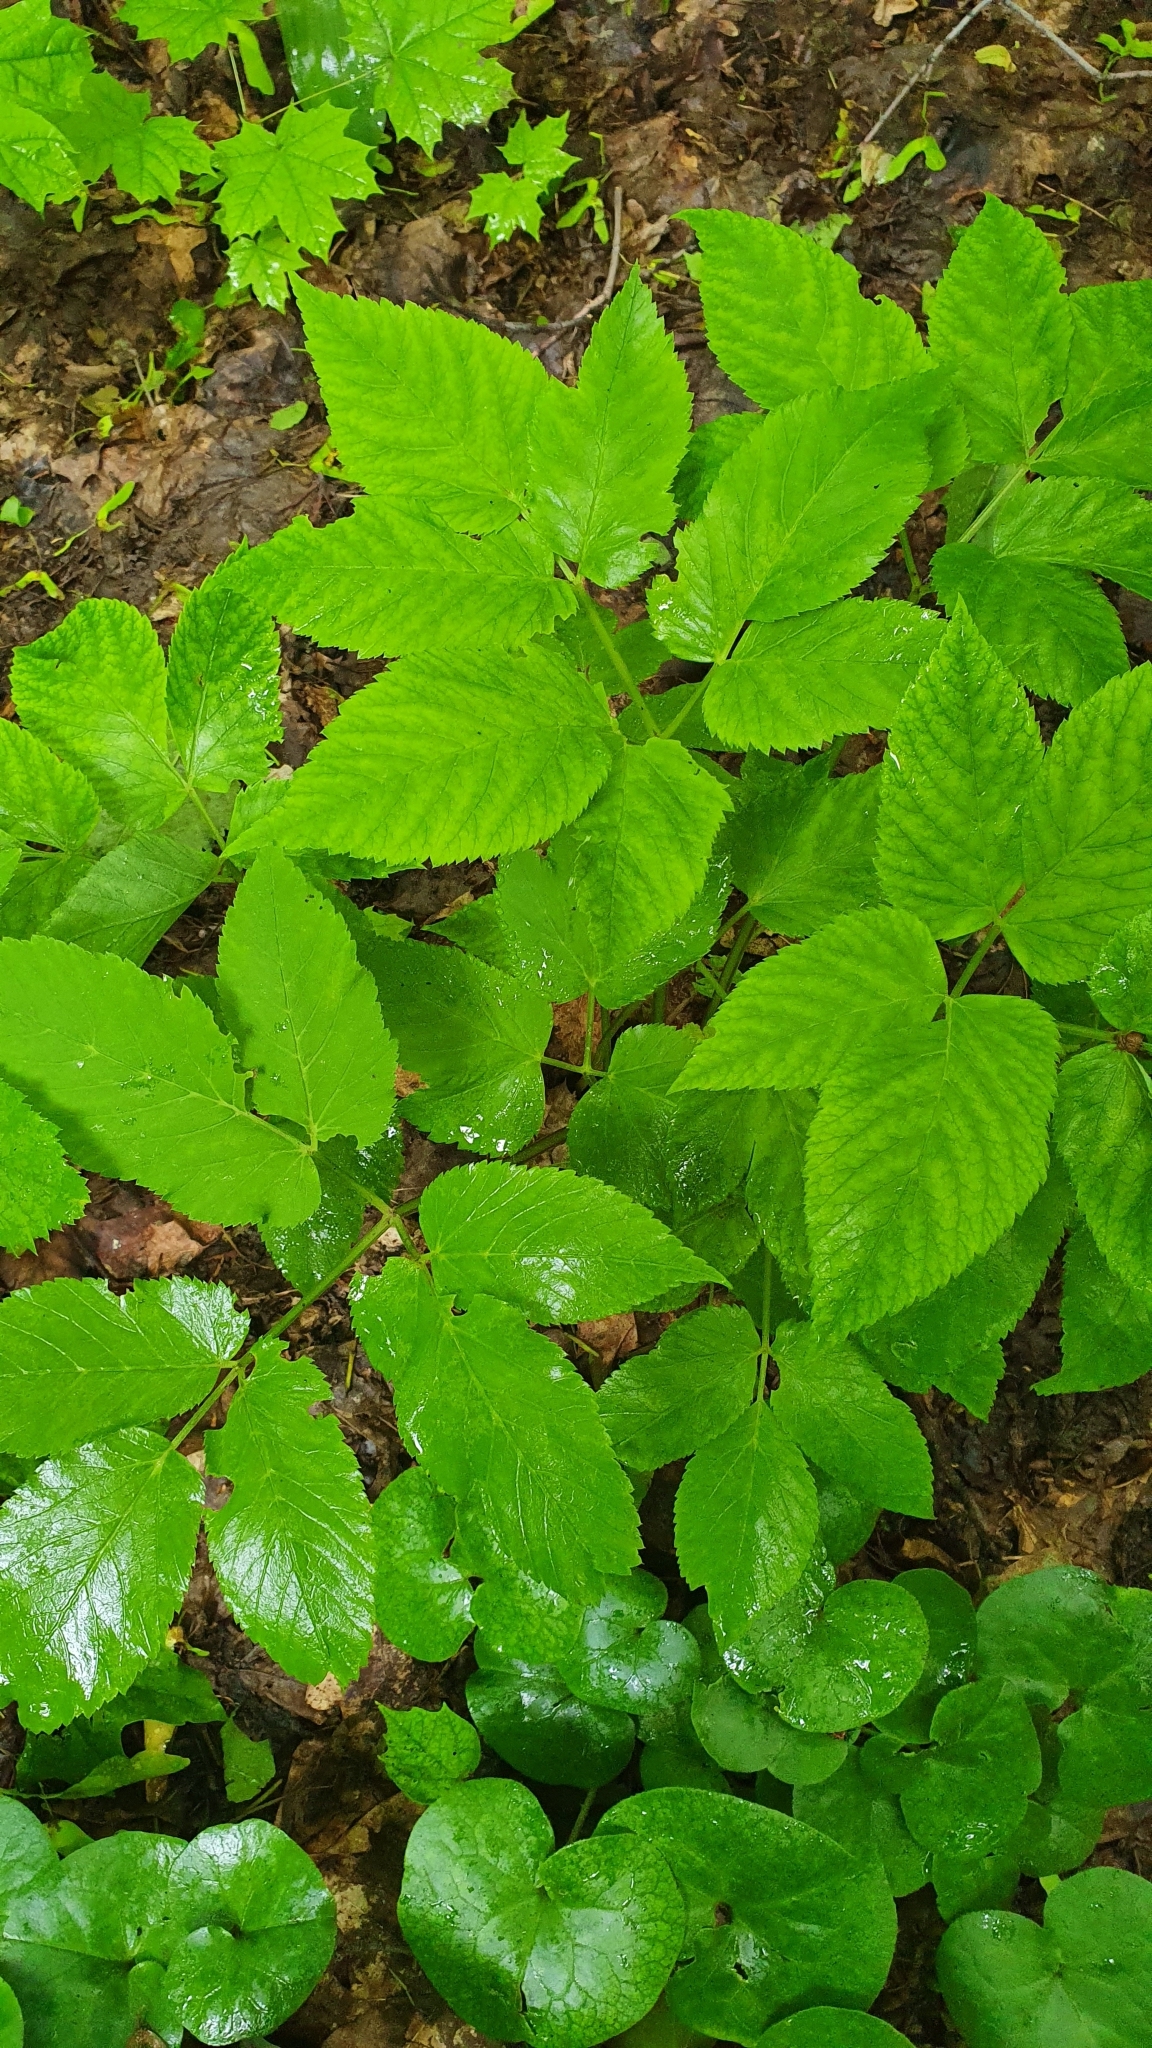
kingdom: Plantae
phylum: Tracheophyta
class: Magnoliopsida
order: Apiales
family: Apiaceae
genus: Aegopodium
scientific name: Aegopodium podagraria
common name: Ground-elder
